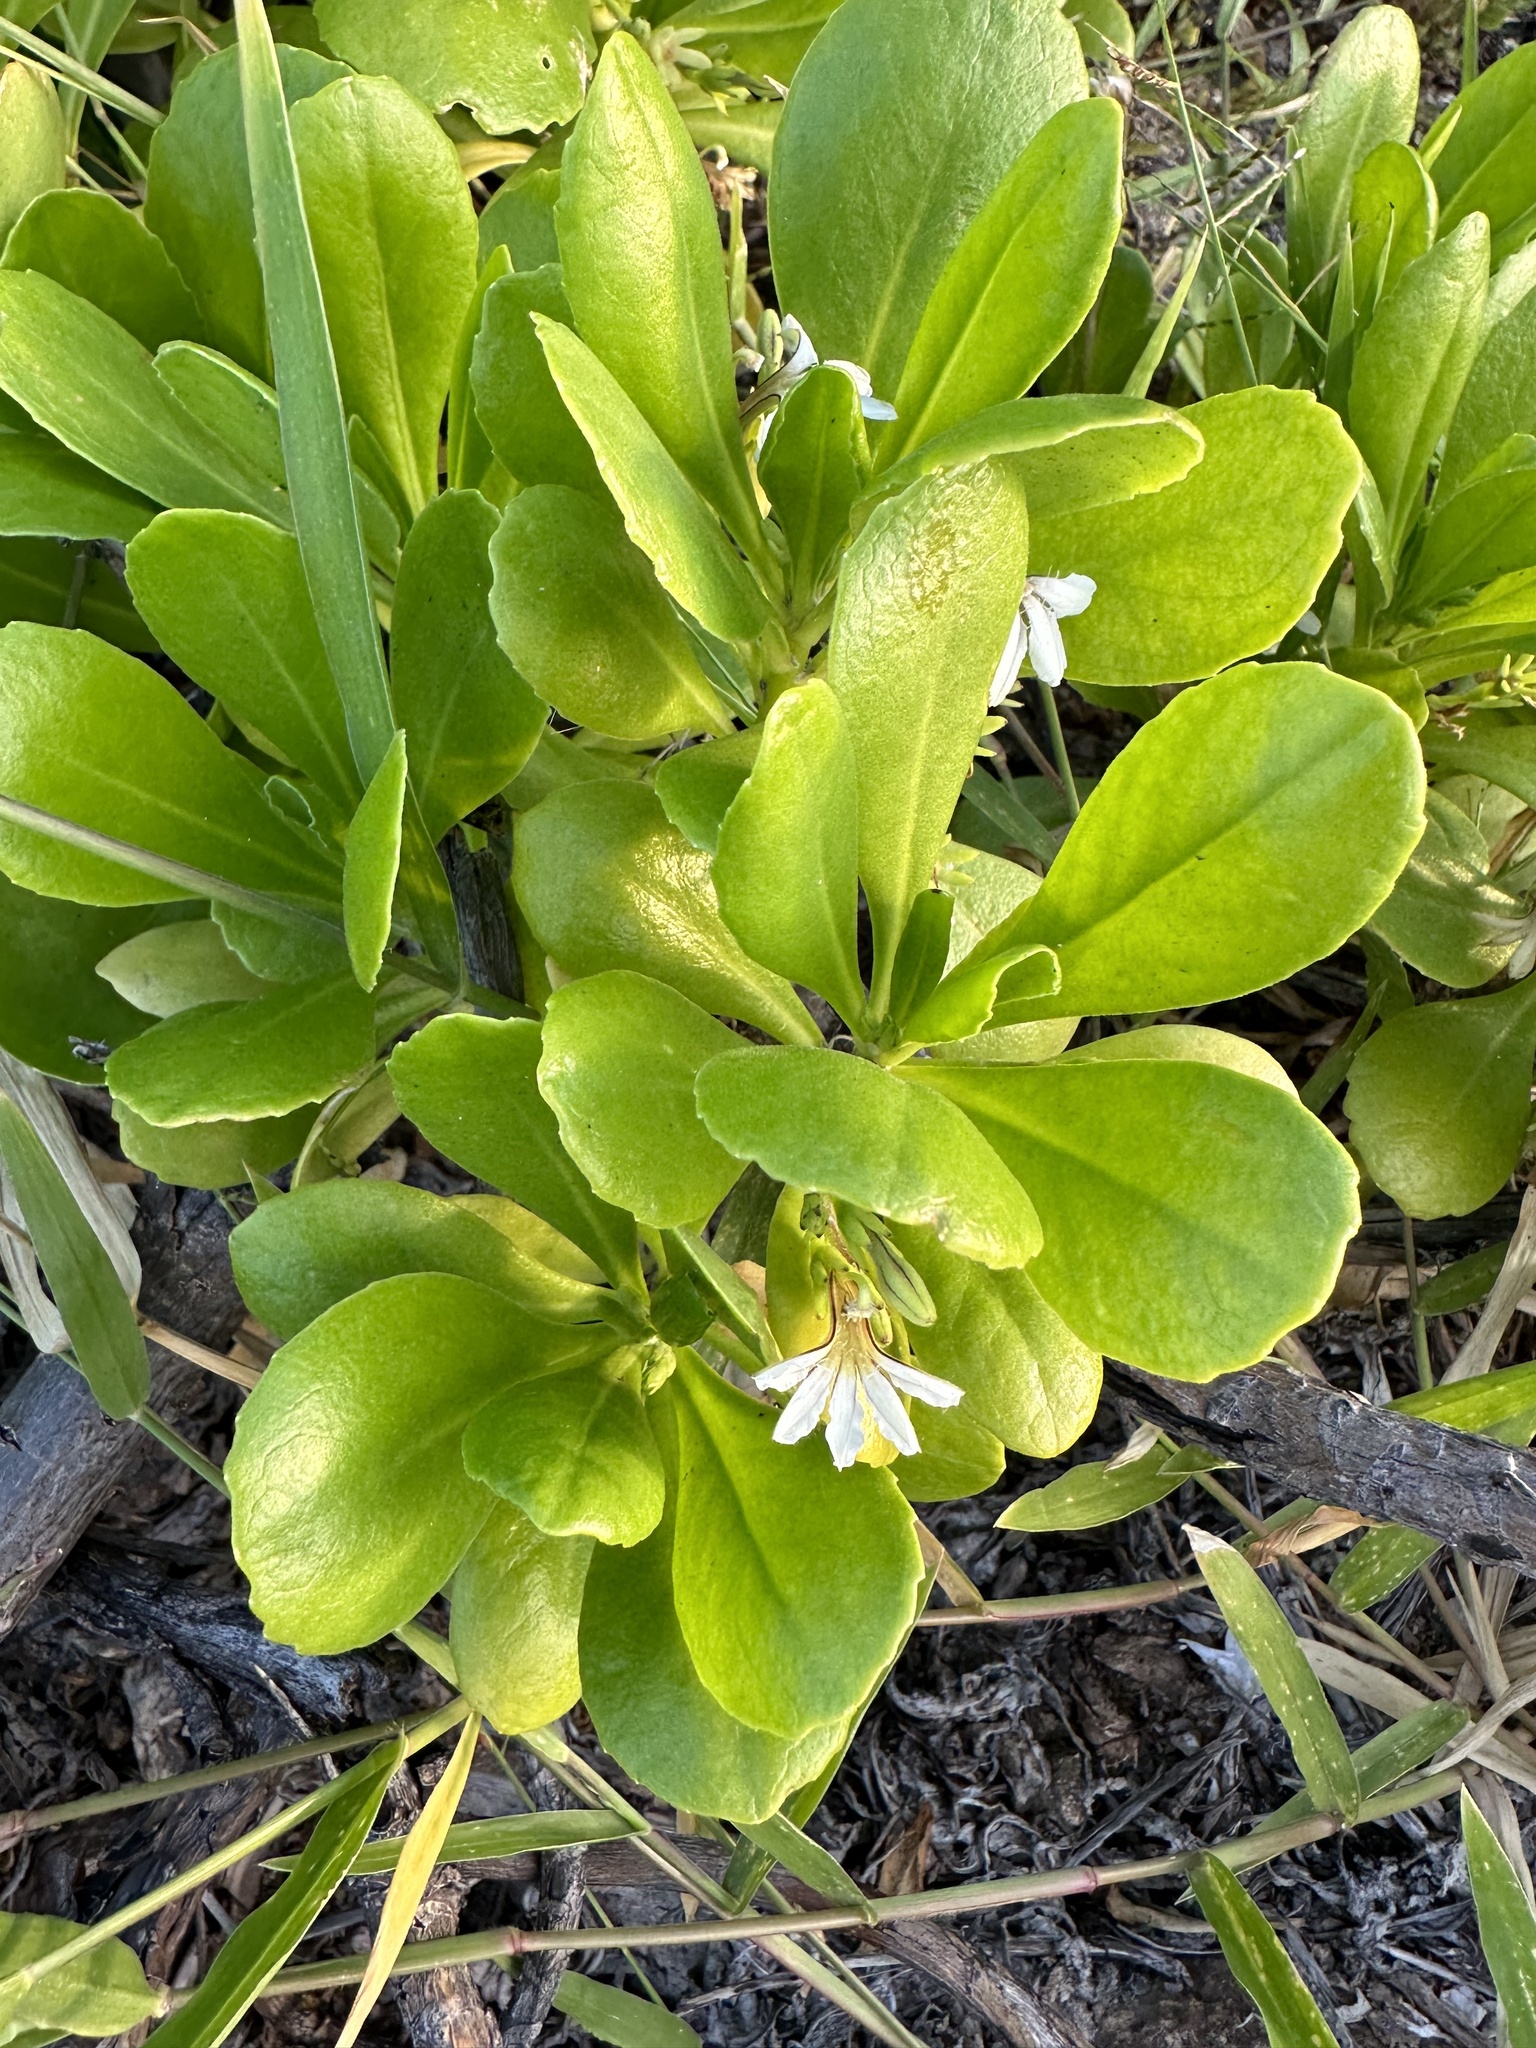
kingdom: Plantae
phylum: Tracheophyta
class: Magnoliopsida
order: Asterales
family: Goodeniaceae
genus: Scaevola
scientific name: Scaevola taccada
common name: Sea lettucetree
